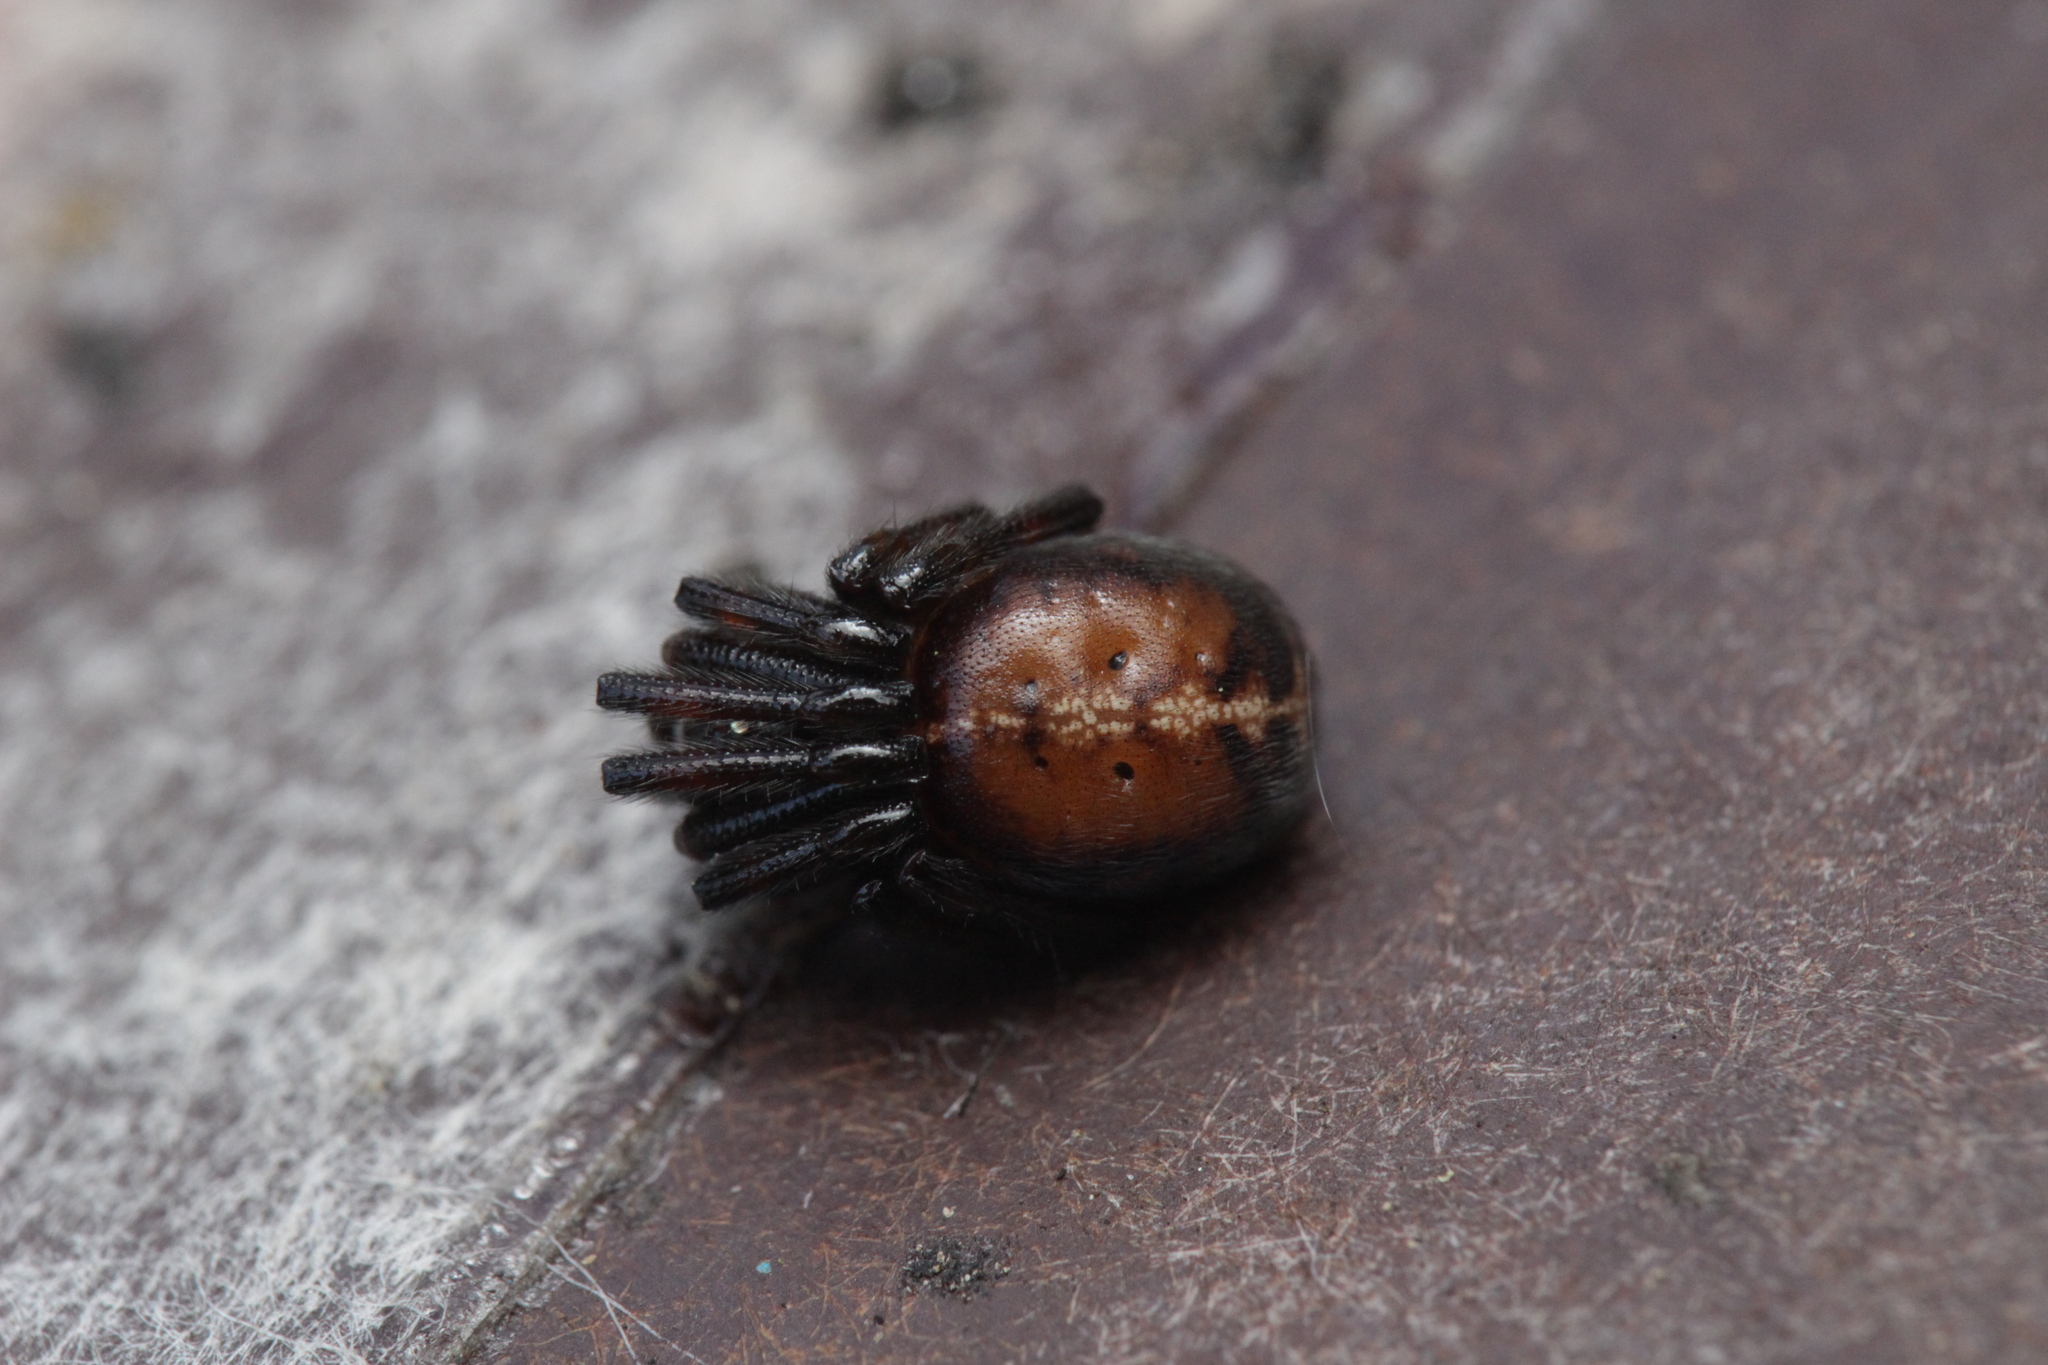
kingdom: Animalia
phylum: Arthropoda
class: Arachnida
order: Araneae
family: Theridiidae
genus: Steatoda
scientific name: Steatoda bipunctata
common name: False widow
